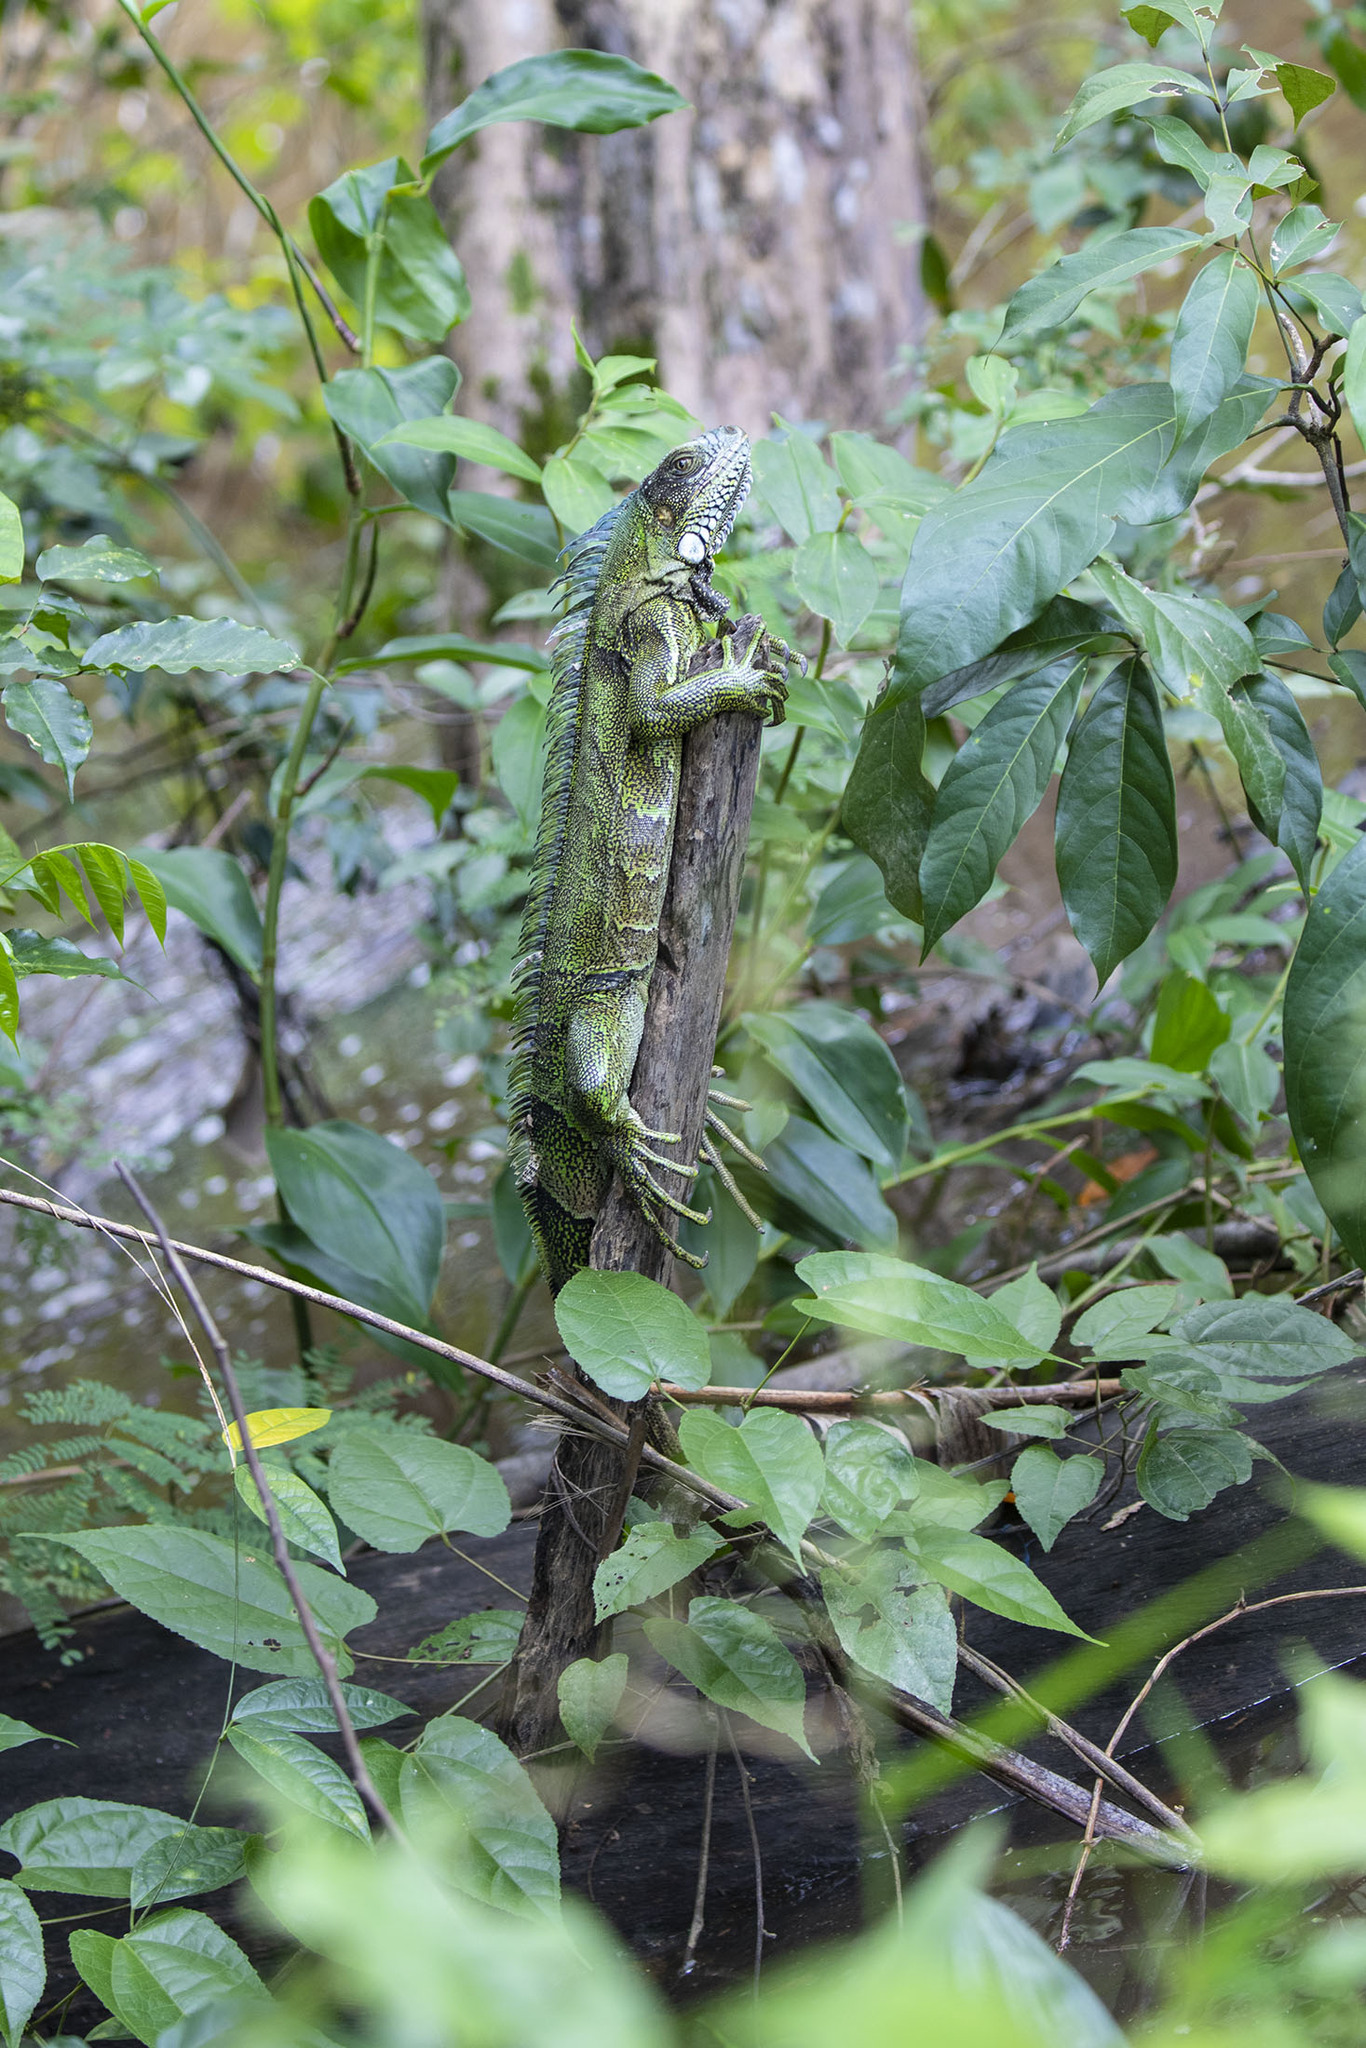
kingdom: Animalia
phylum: Chordata
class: Squamata
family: Iguanidae
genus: Iguana
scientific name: Iguana iguana
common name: Green iguana
